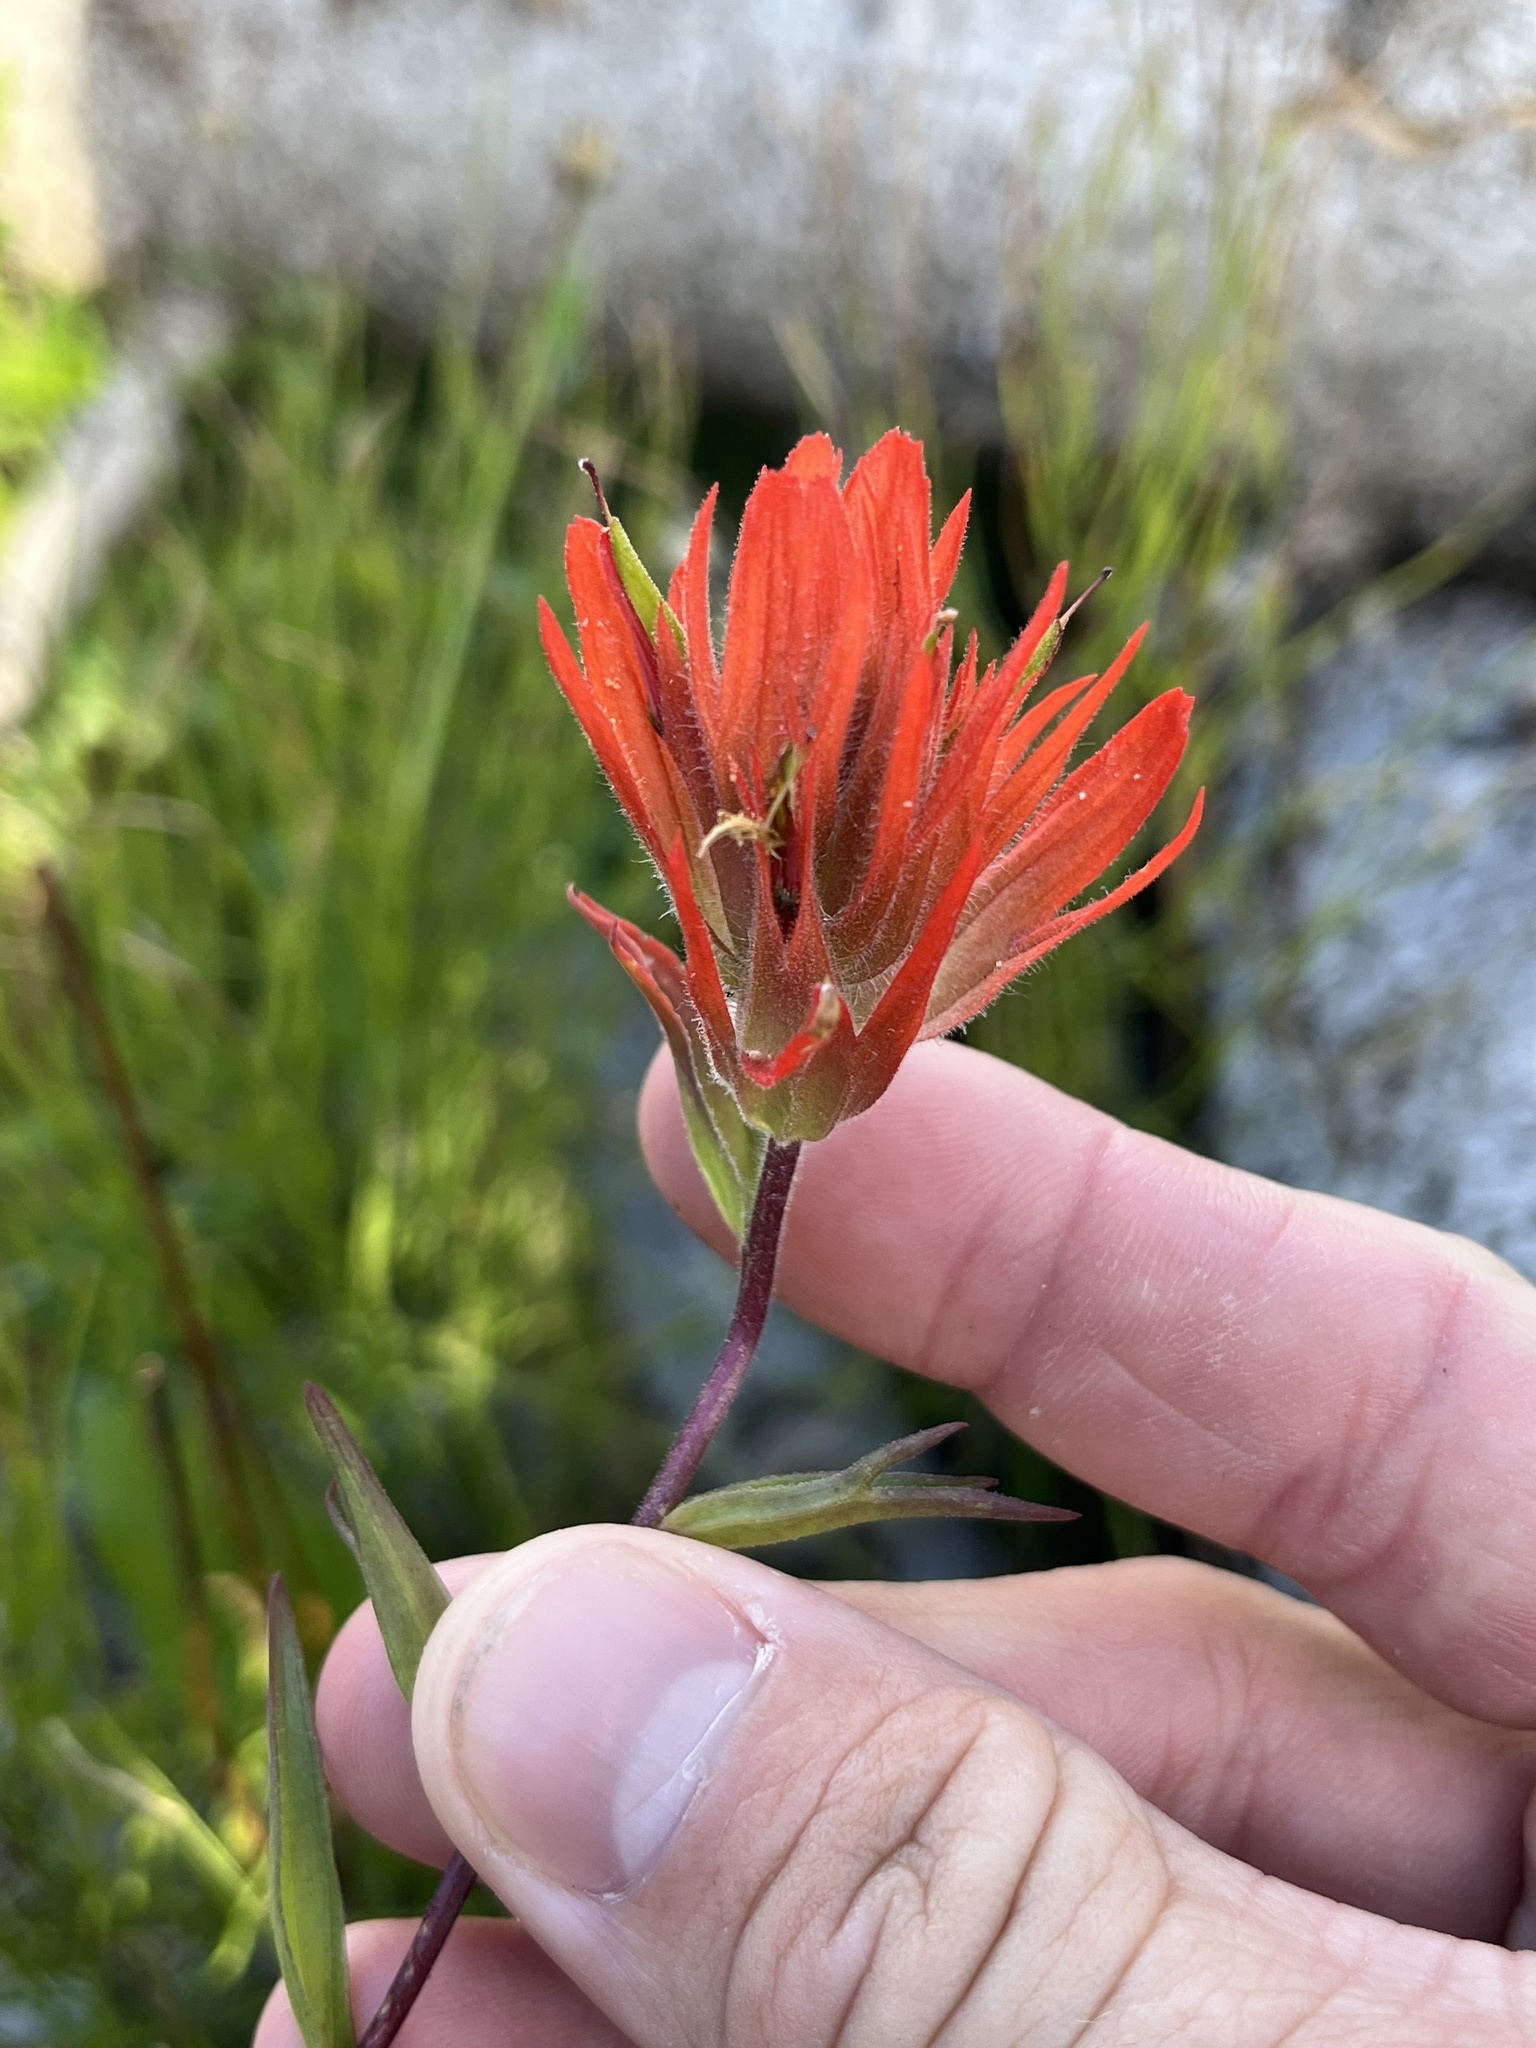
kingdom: Plantae
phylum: Tracheophyta
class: Magnoliopsida
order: Lamiales
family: Orobanchaceae
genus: Castilleja
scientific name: Castilleja miniata
